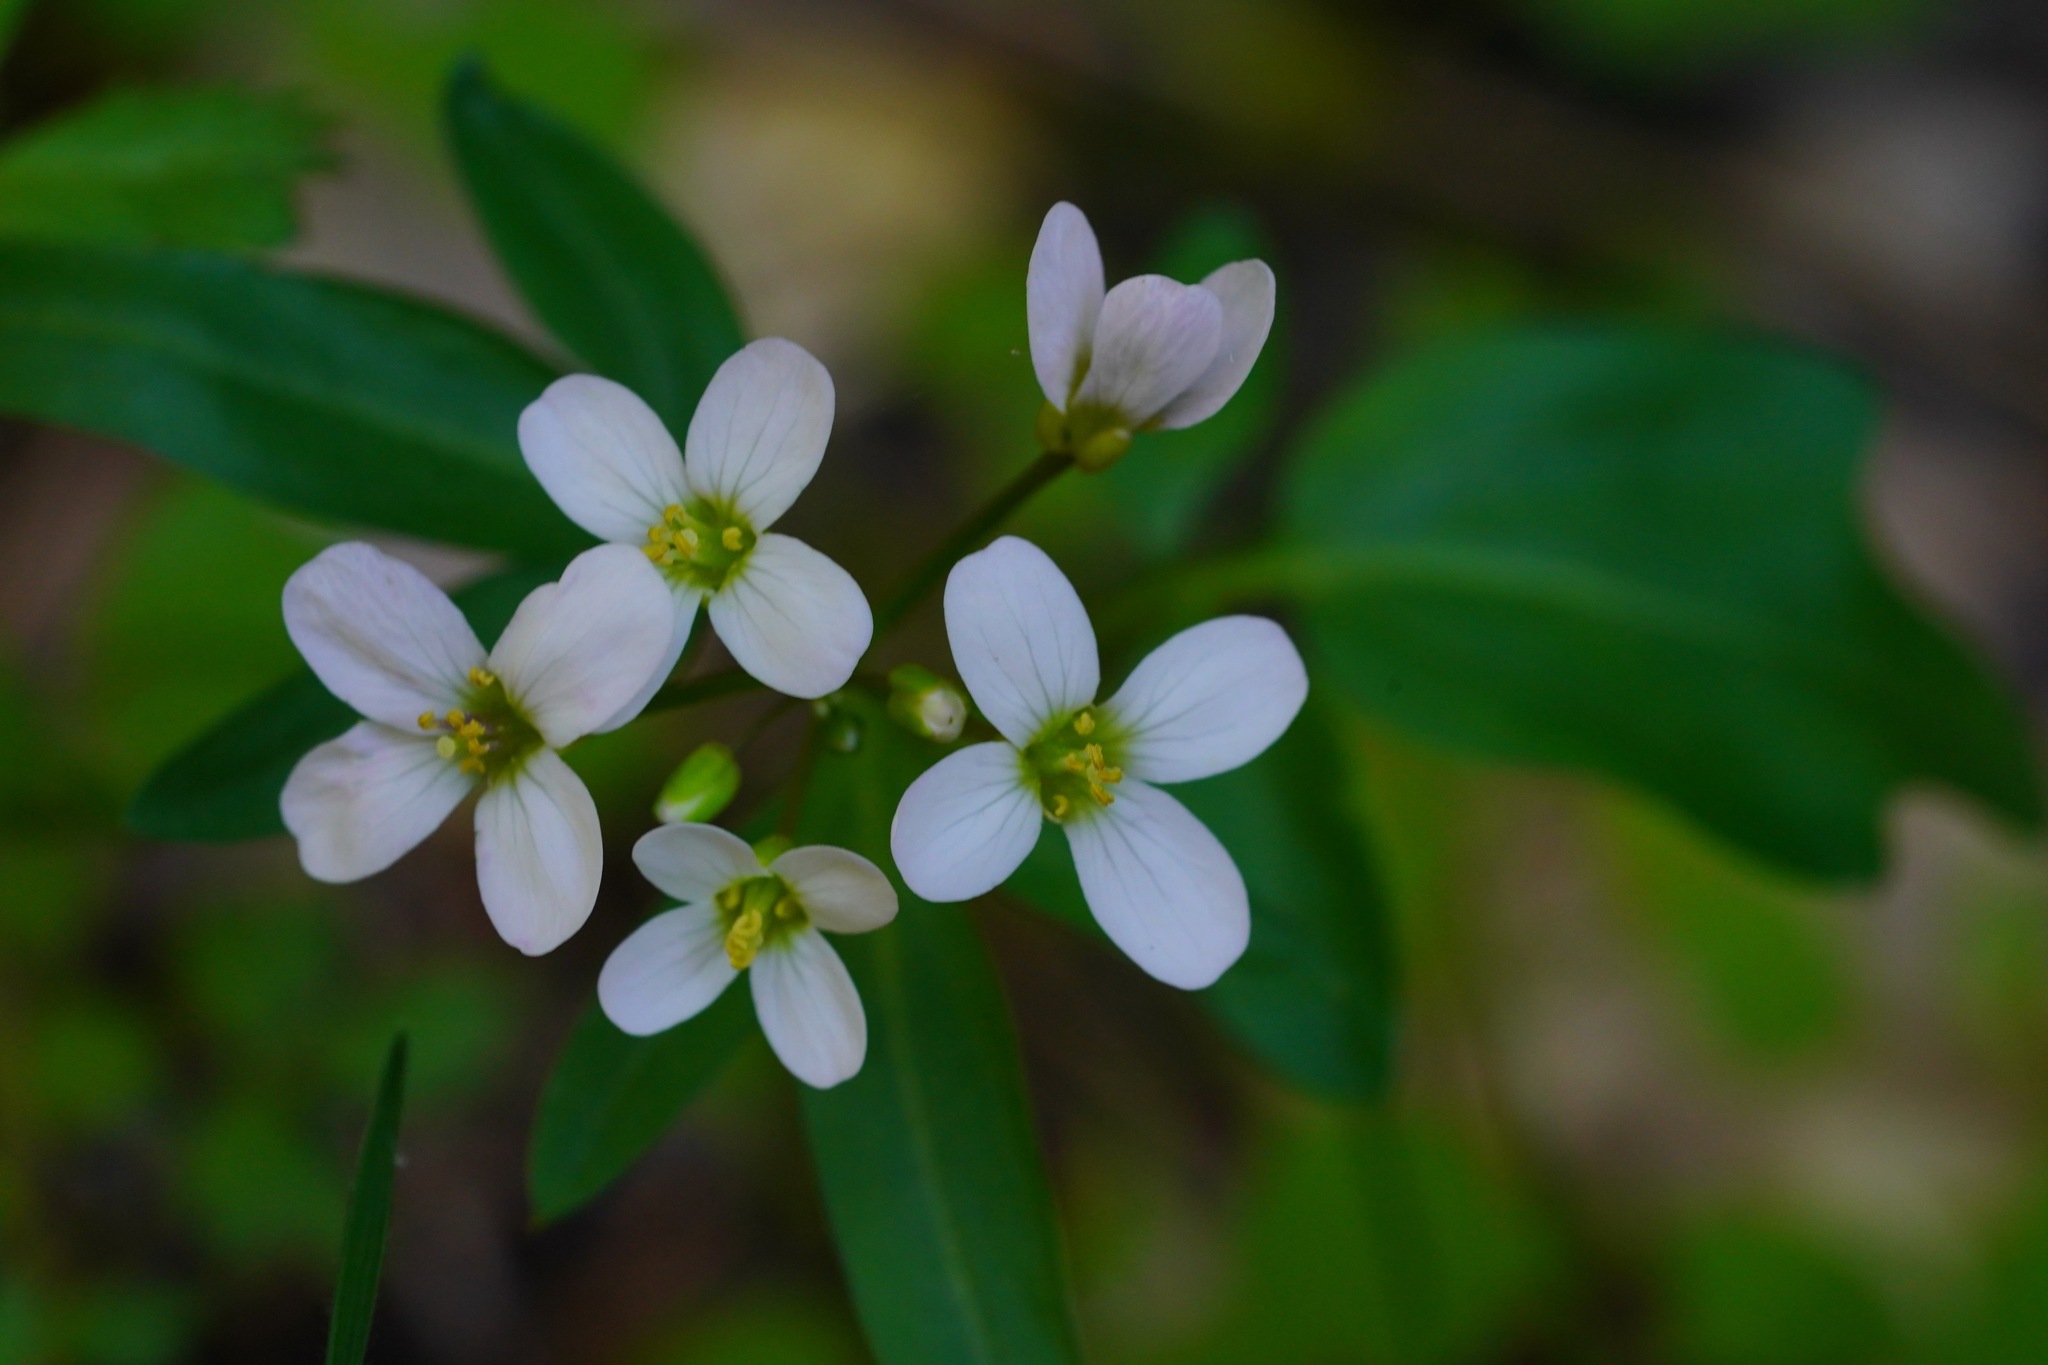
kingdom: Plantae
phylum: Tracheophyta
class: Magnoliopsida
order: Brassicales
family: Brassicaceae
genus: Cardamine
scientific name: Cardamine californica
